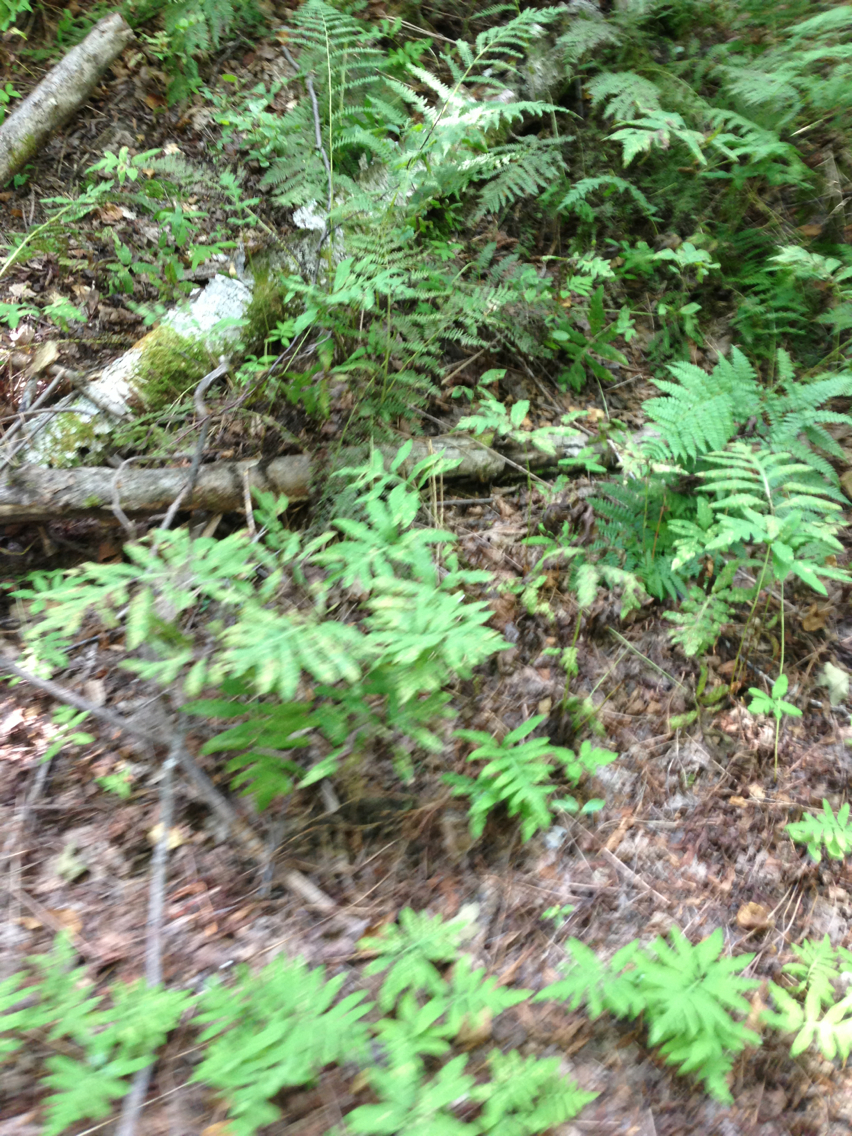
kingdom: Plantae
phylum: Tracheophyta
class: Polypodiopsida
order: Polypodiales
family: Onocleaceae
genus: Onoclea
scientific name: Onoclea sensibilis
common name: Sensitive fern
